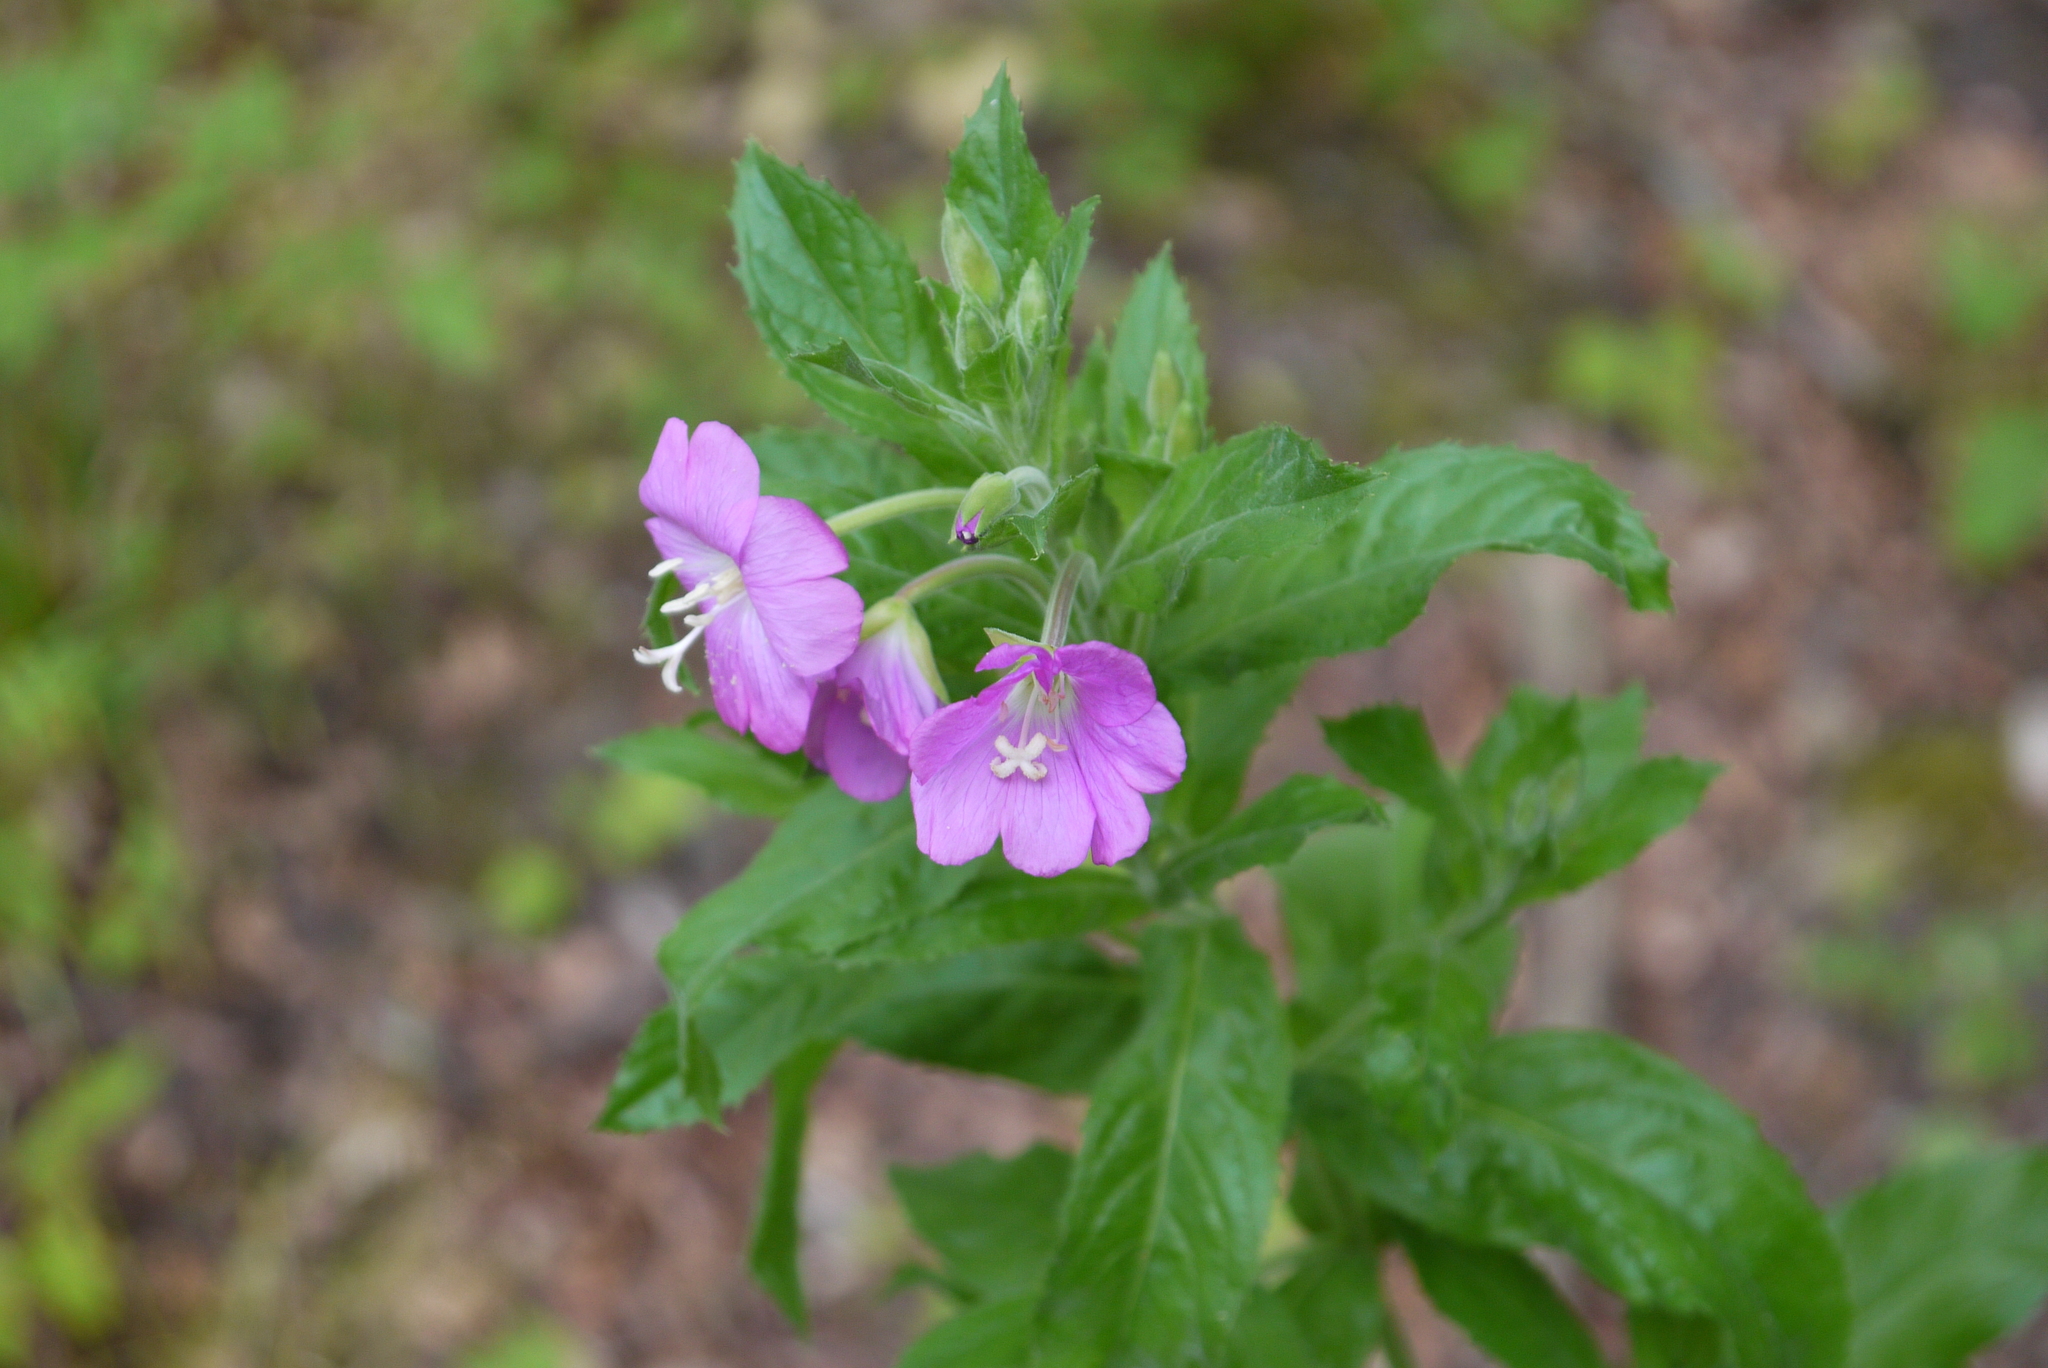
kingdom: Plantae
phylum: Tracheophyta
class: Magnoliopsida
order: Myrtales
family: Onagraceae
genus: Epilobium
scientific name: Epilobium hirsutum
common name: Great willowherb
